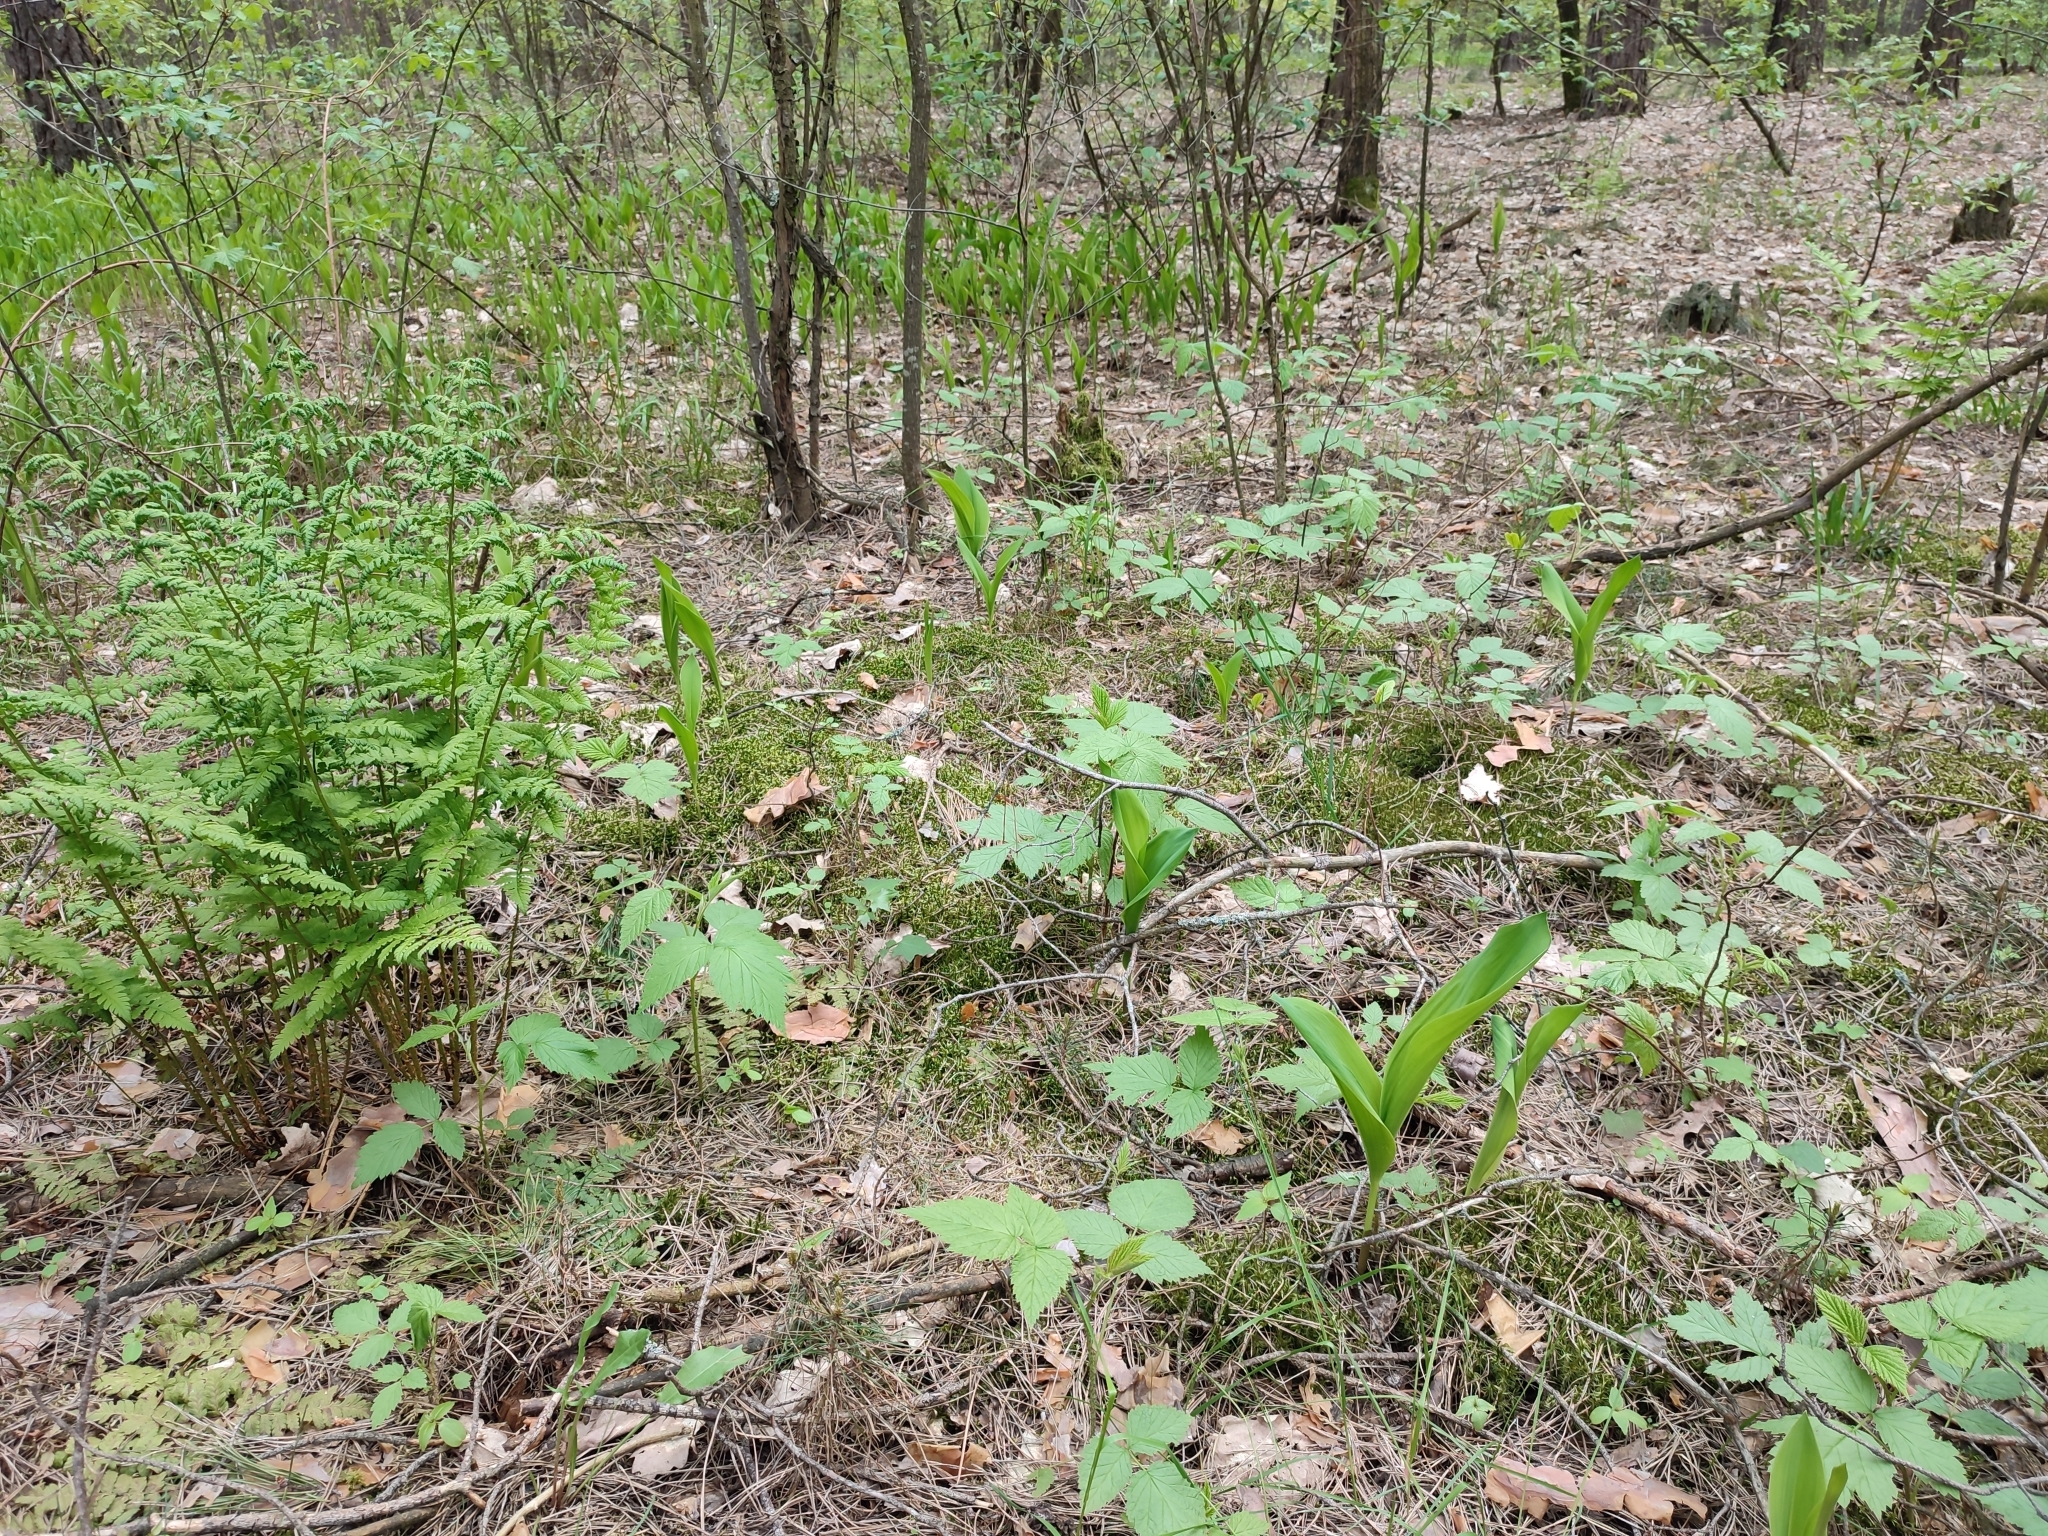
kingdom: Plantae
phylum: Tracheophyta
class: Liliopsida
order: Asparagales
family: Asparagaceae
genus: Convallaria
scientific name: Convallaria majalis
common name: Lily-of-the-valley
